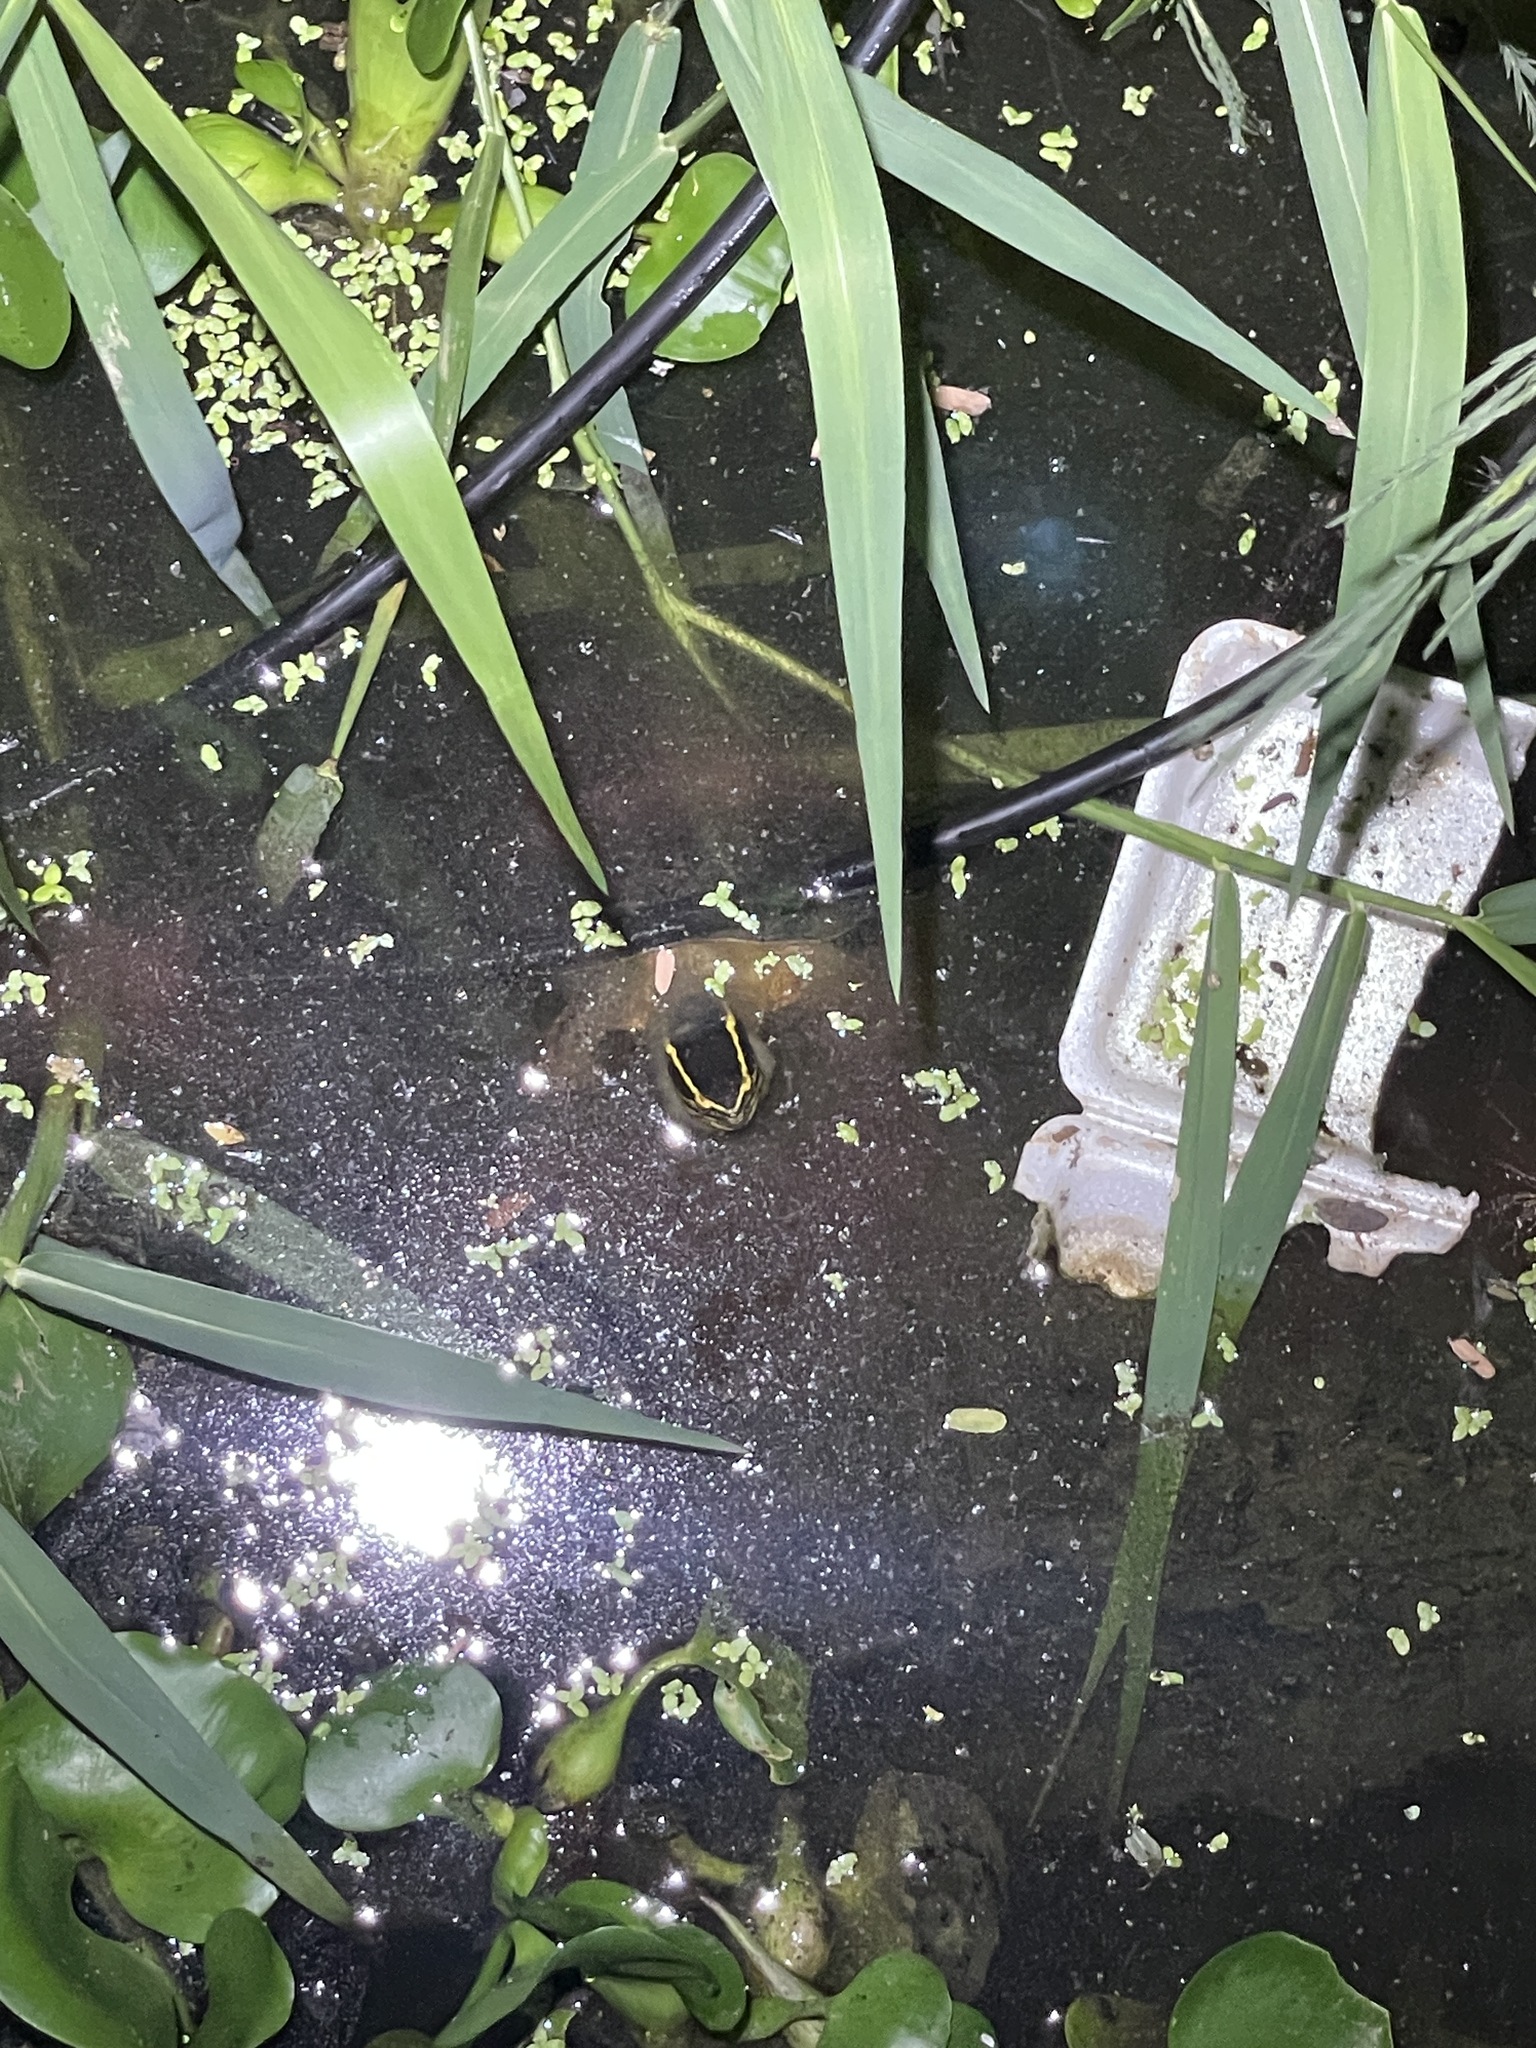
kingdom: Animalia
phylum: Chordata
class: Testudines
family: Geoemydidae
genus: Cuora
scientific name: Cuora
